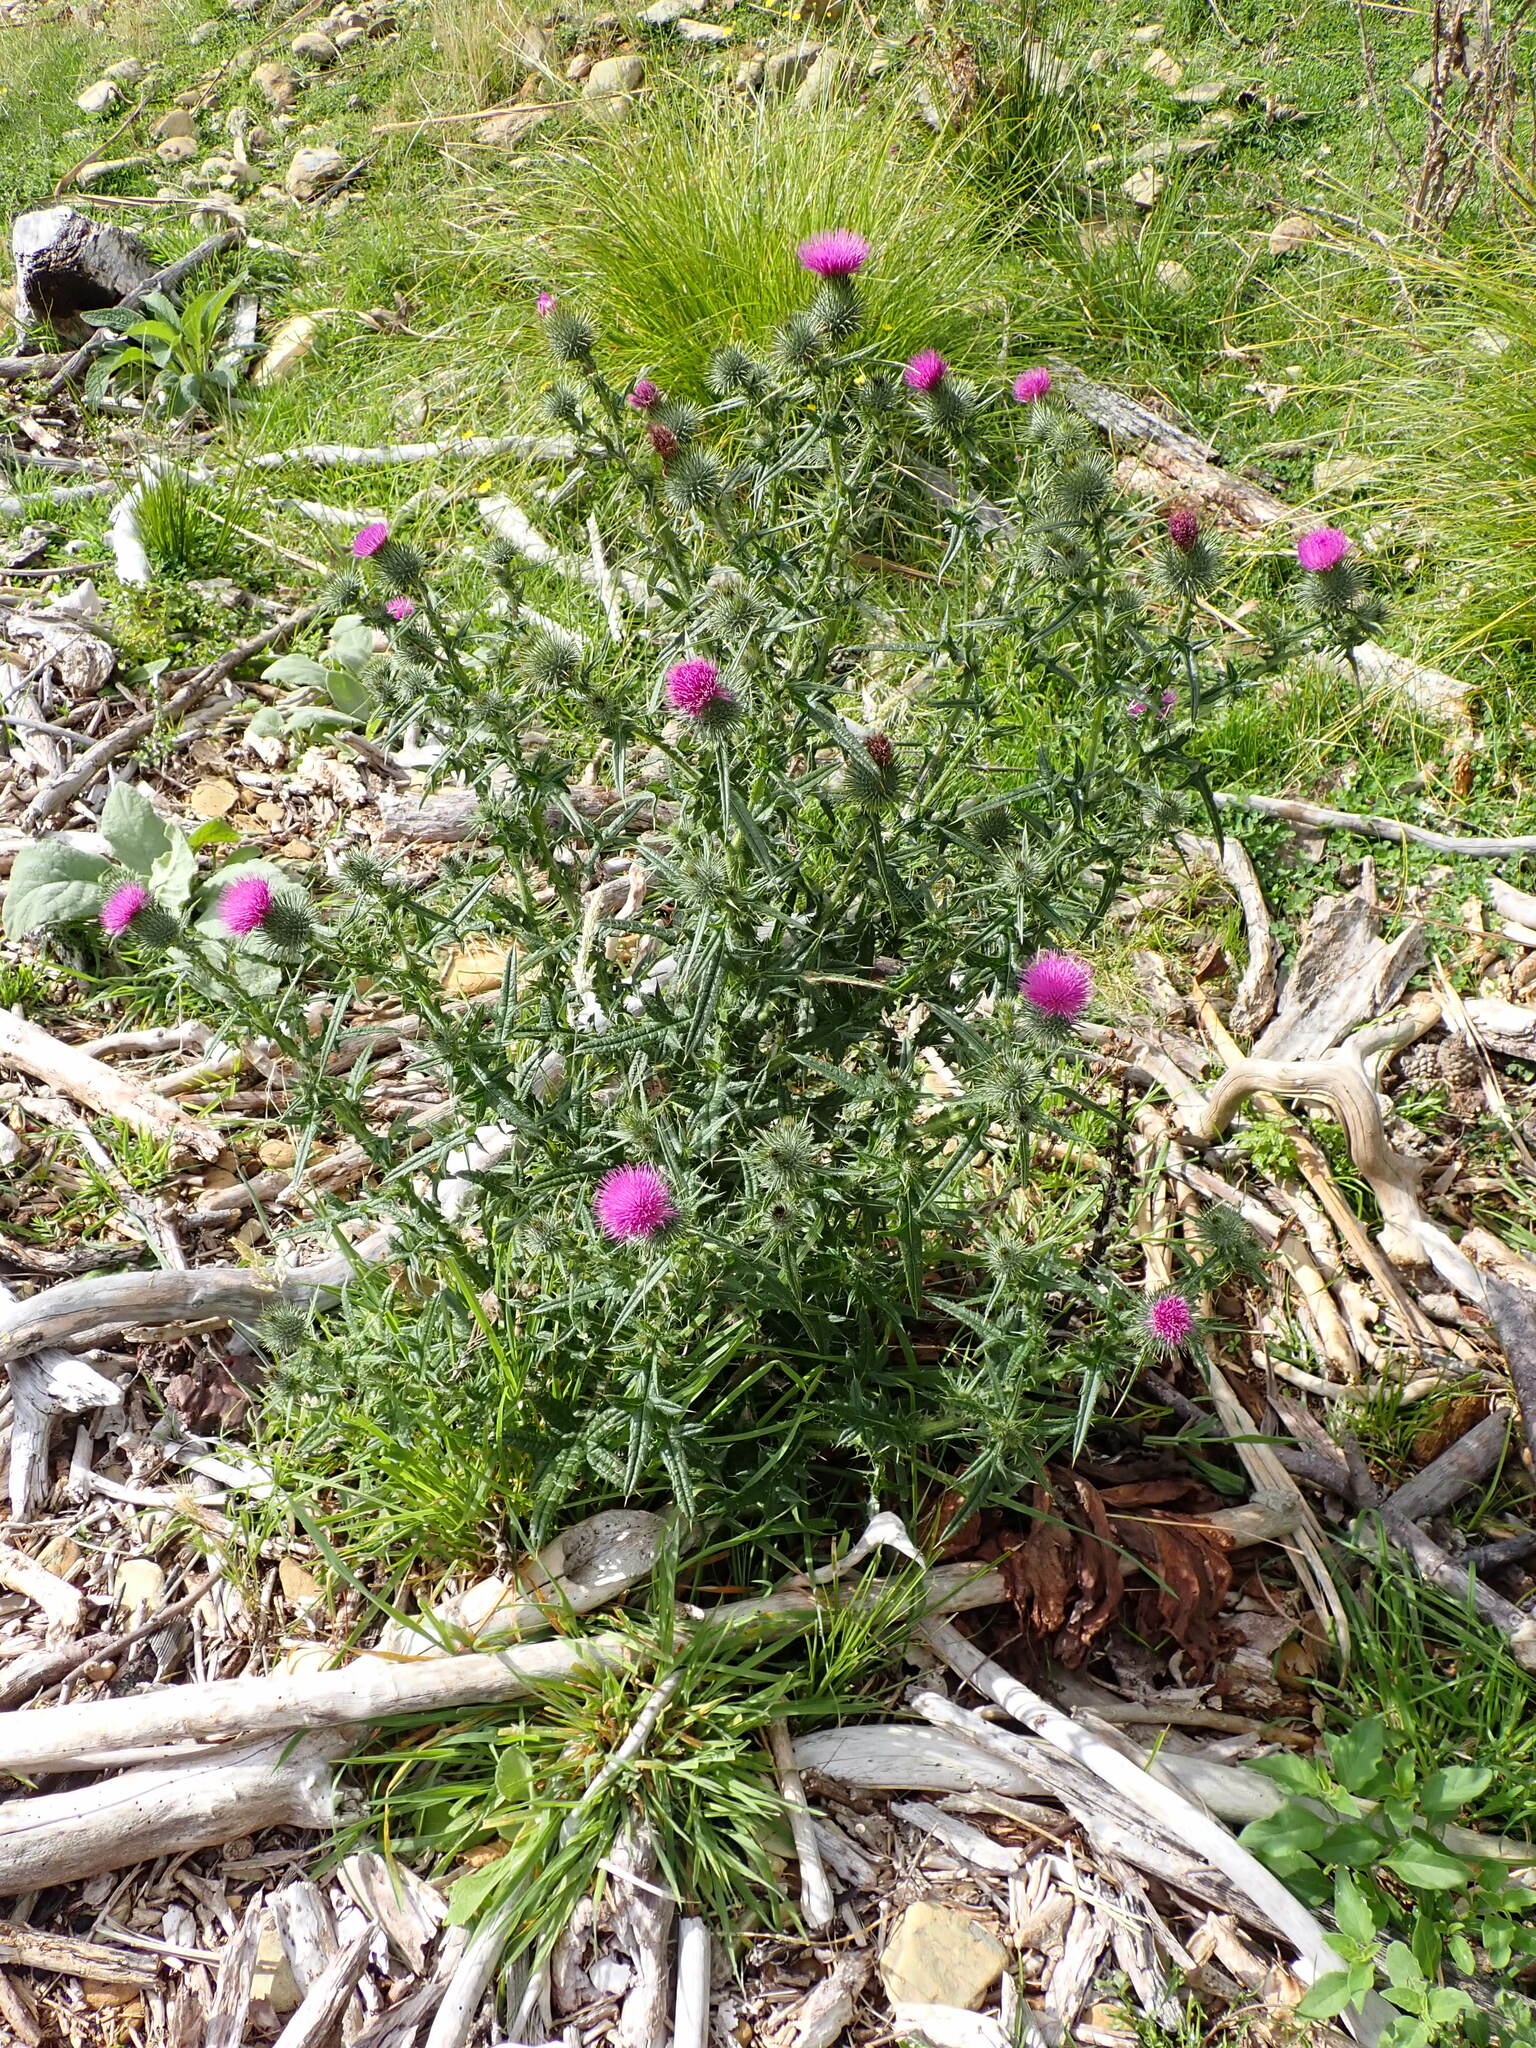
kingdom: Plantae
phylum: Tracheophyta
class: Magnoliopsida
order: Asterales
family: Asteraceae
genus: Cirsium
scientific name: Cirsium vulgare
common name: Bull thistle
